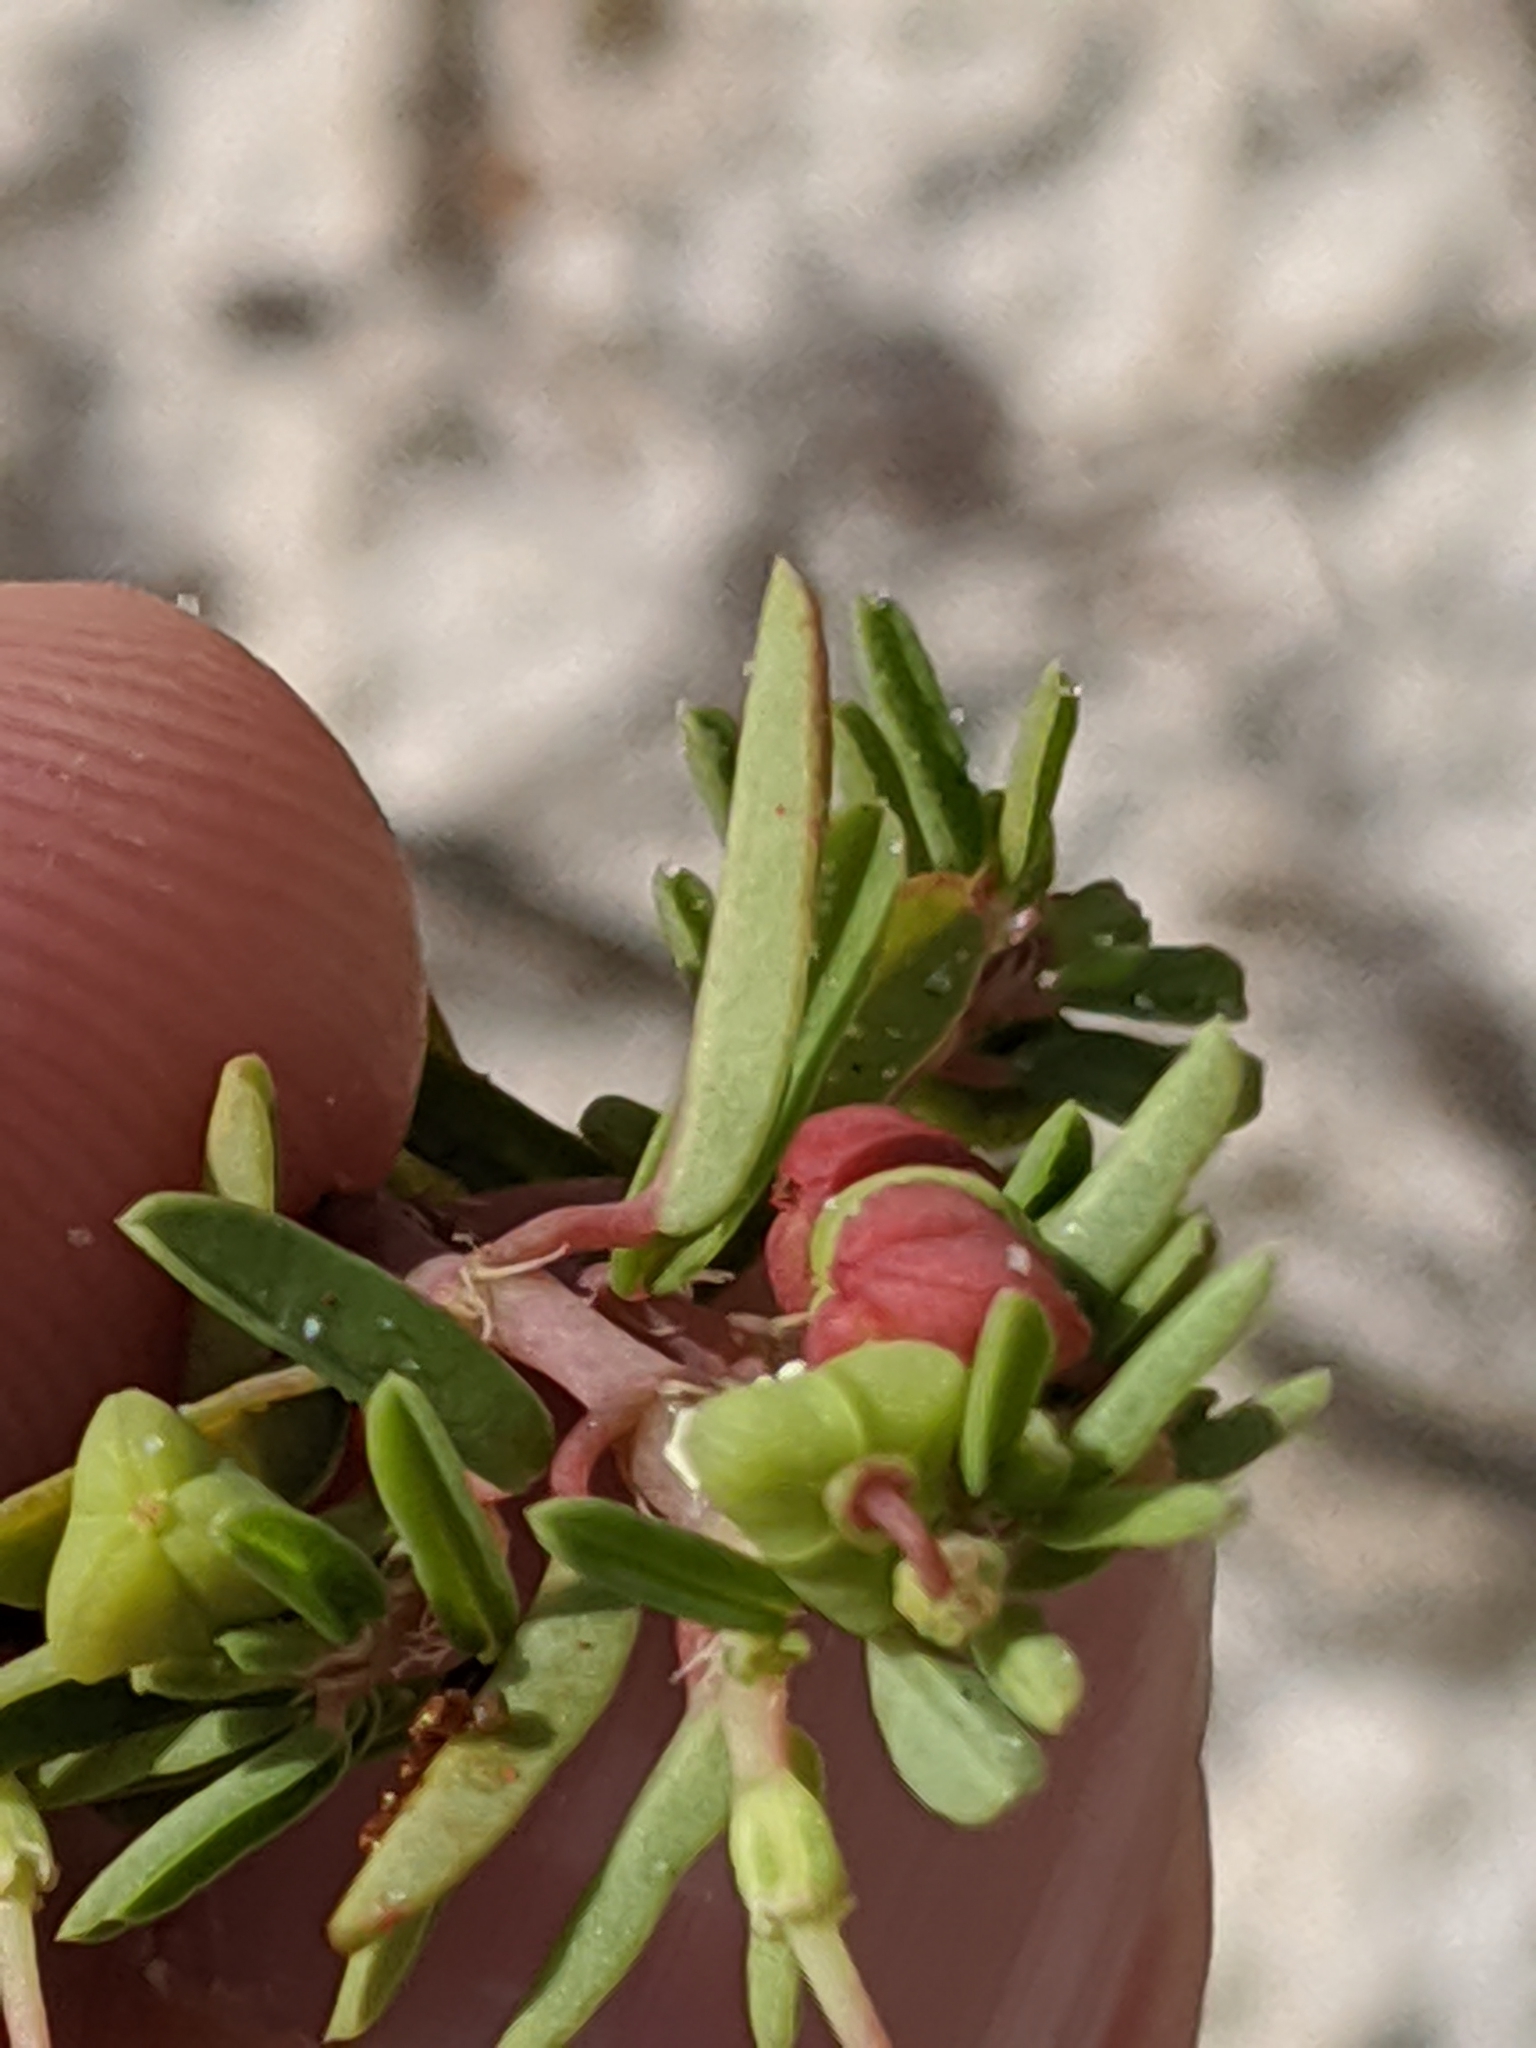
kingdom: Plantae
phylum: Tracheophyta
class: Magnoliopsida
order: Malpighiales
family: Euphorbiaceae
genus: Euphorbia
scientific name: Euphorbia bombensis
